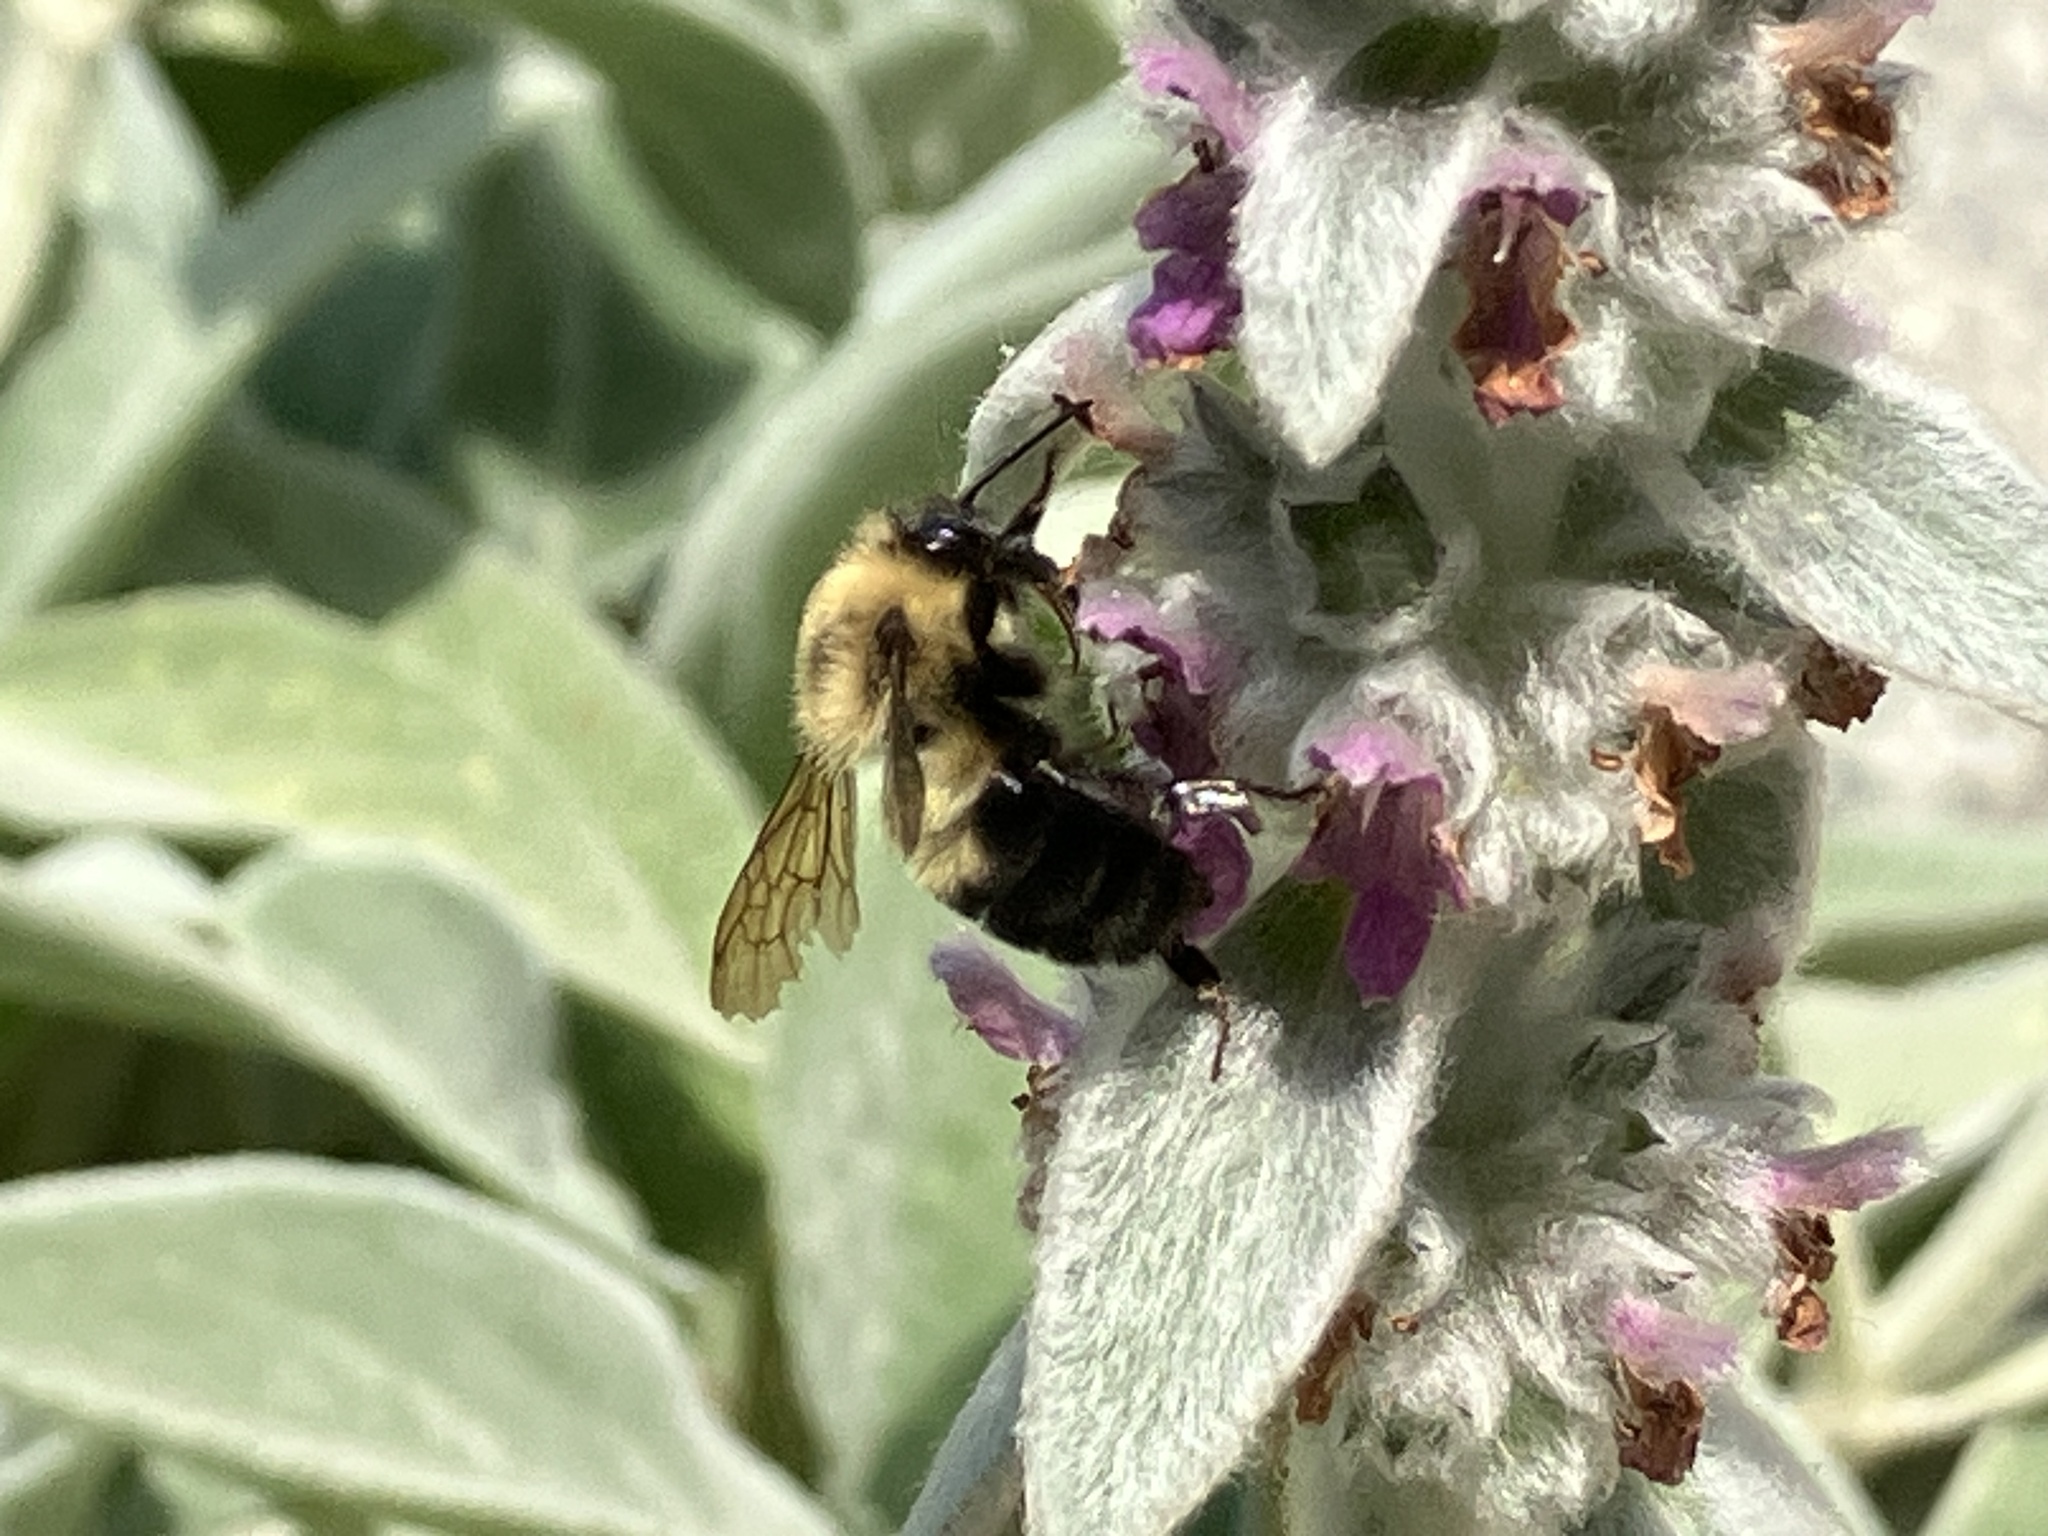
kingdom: Animalia
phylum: Arthropoda
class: Insecta
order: Hymenoptera
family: Apidae
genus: Bombus
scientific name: Bombus bimaculatus
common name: Two-spotted bumble bee
